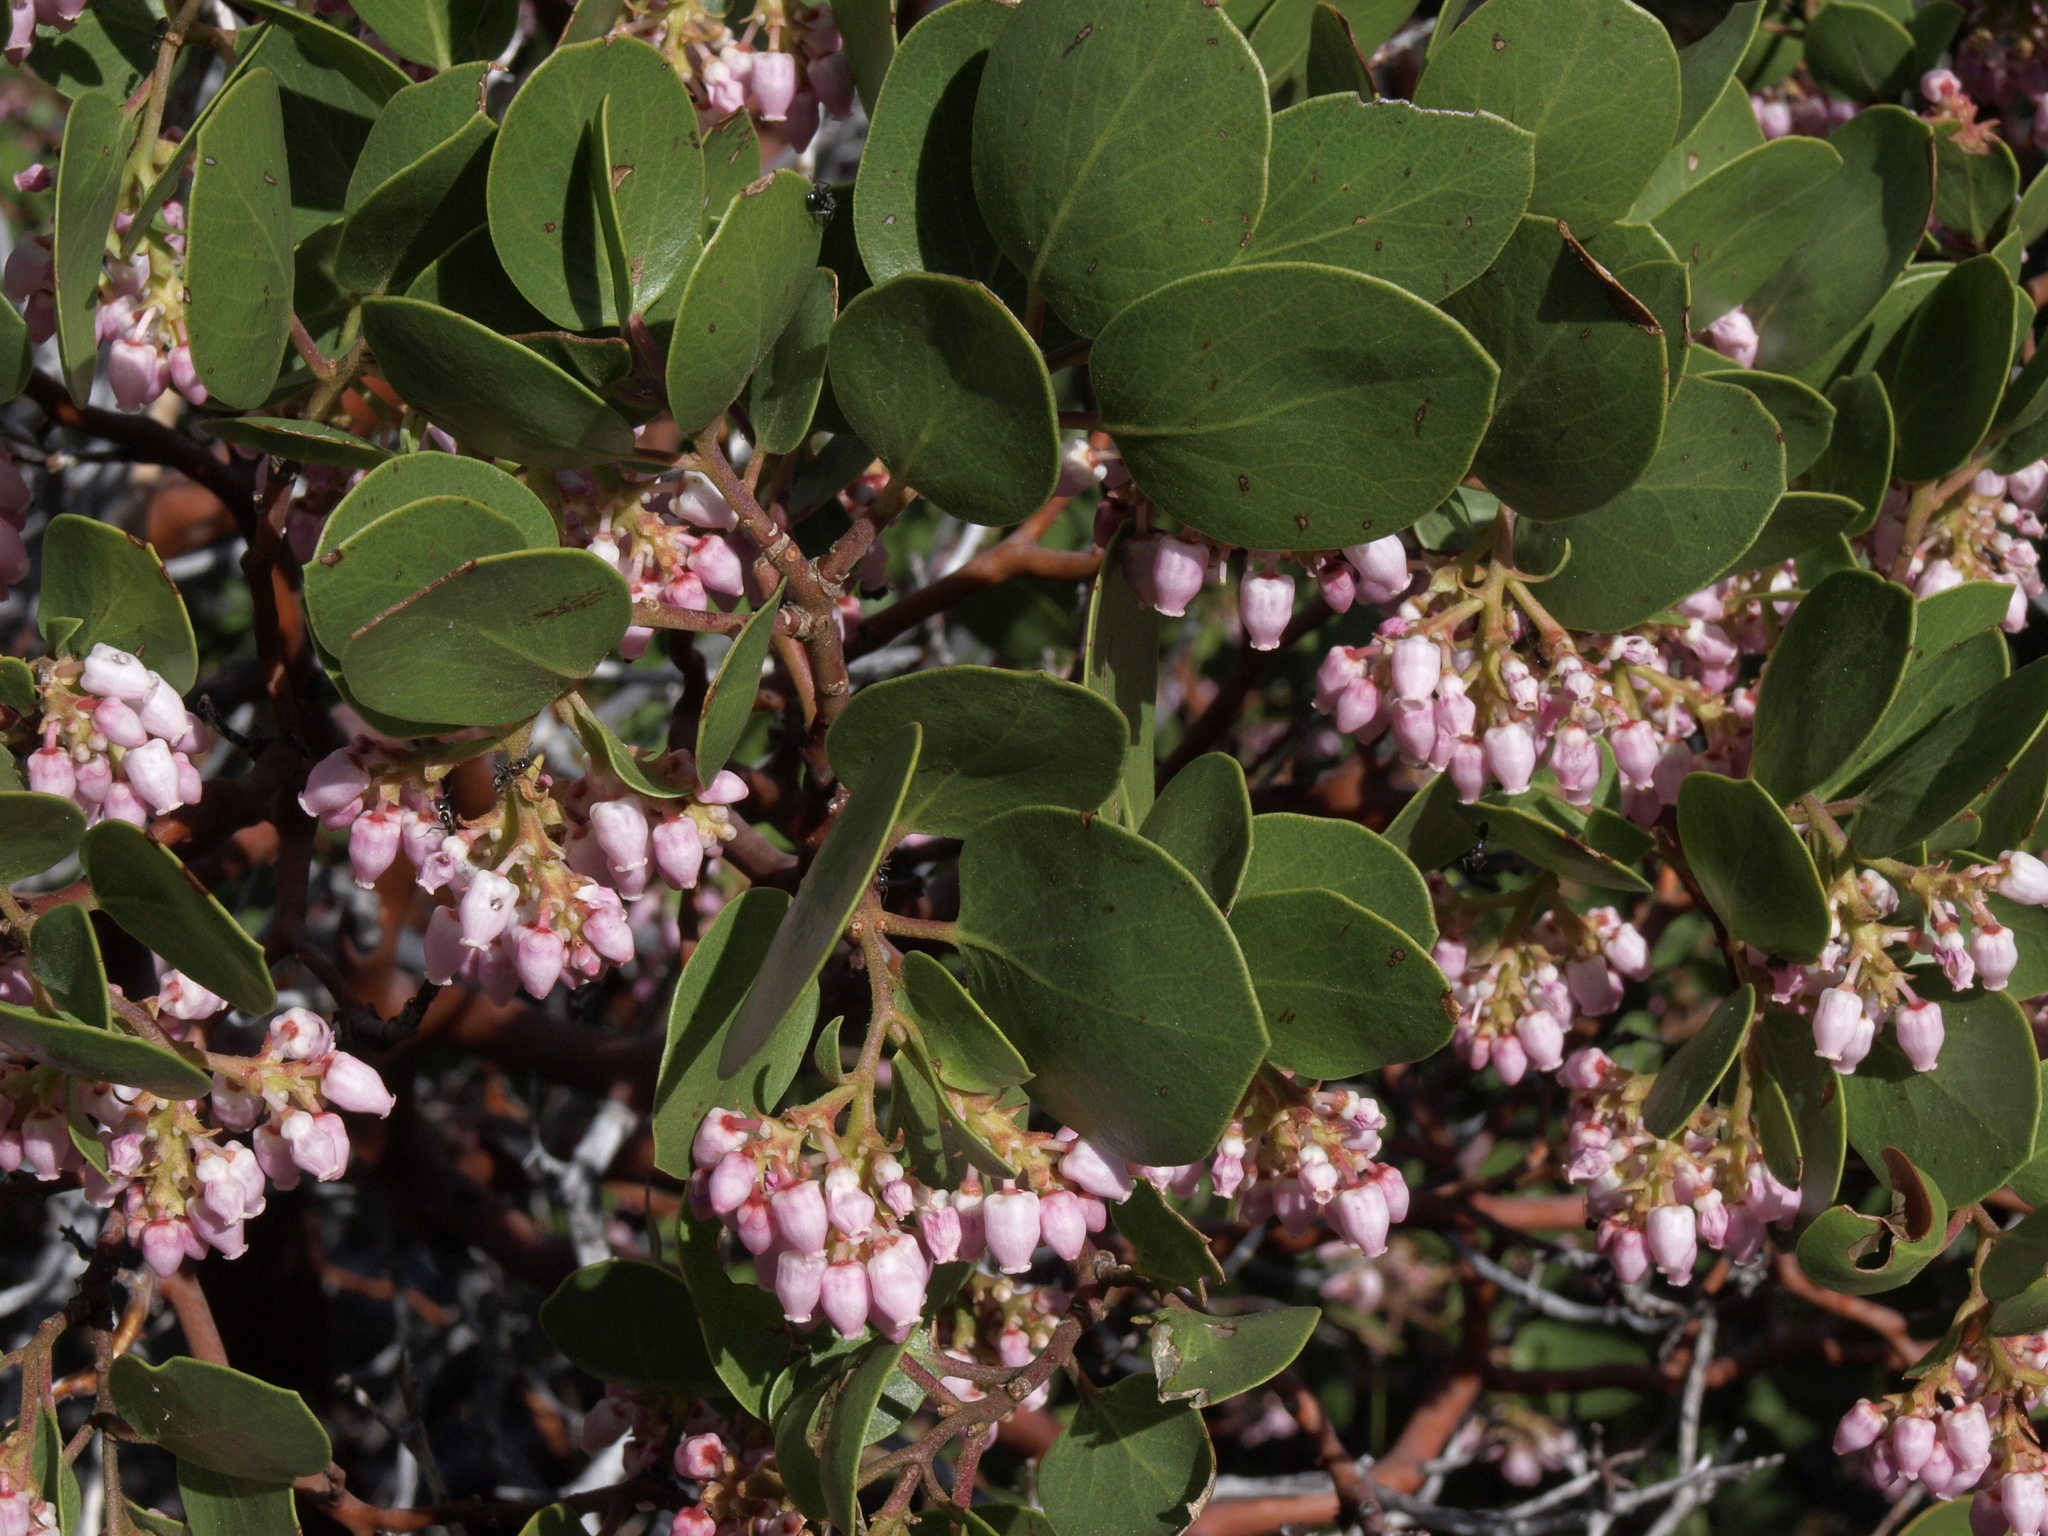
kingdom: Plantae
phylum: Tracheophyta
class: Magnoliopsida
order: Ericales
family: Ericaceae
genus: Arctostaphylos
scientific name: Arctostaphylos patula
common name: Green-leaf manzanita
